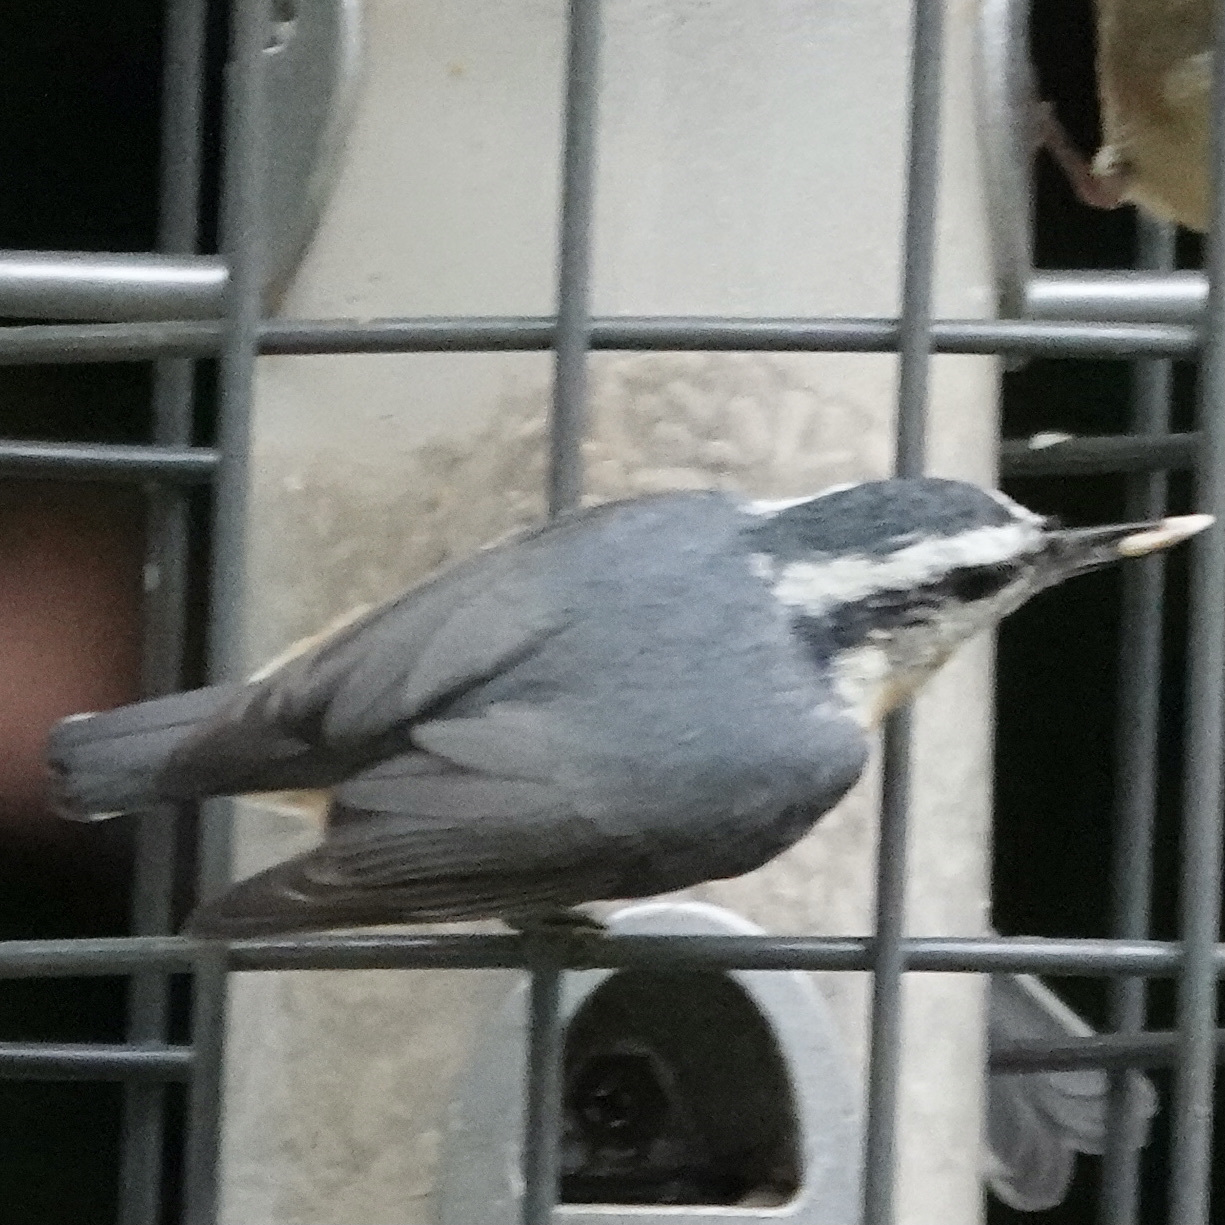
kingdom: Animalia
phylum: Chordata
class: Aves
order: Passeriformes
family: Sittidae
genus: Sitta
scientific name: Sitta canadensis
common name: Red-breasted nuthatch
